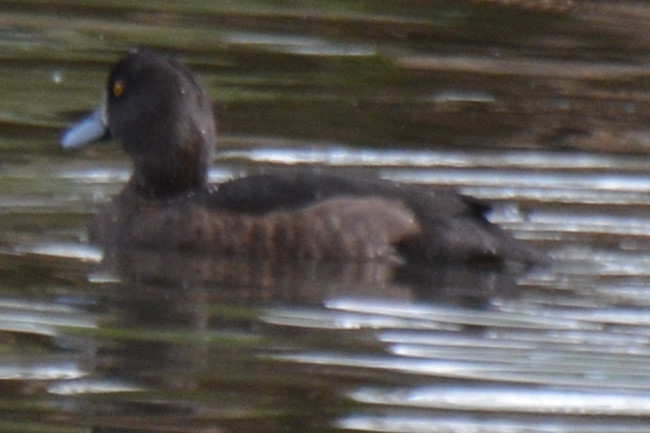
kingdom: Animalia
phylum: Chordata
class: Aves
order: Anseriformes
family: Anatidae
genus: Aythya
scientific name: Aythya fuligula
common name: Tufted duck
